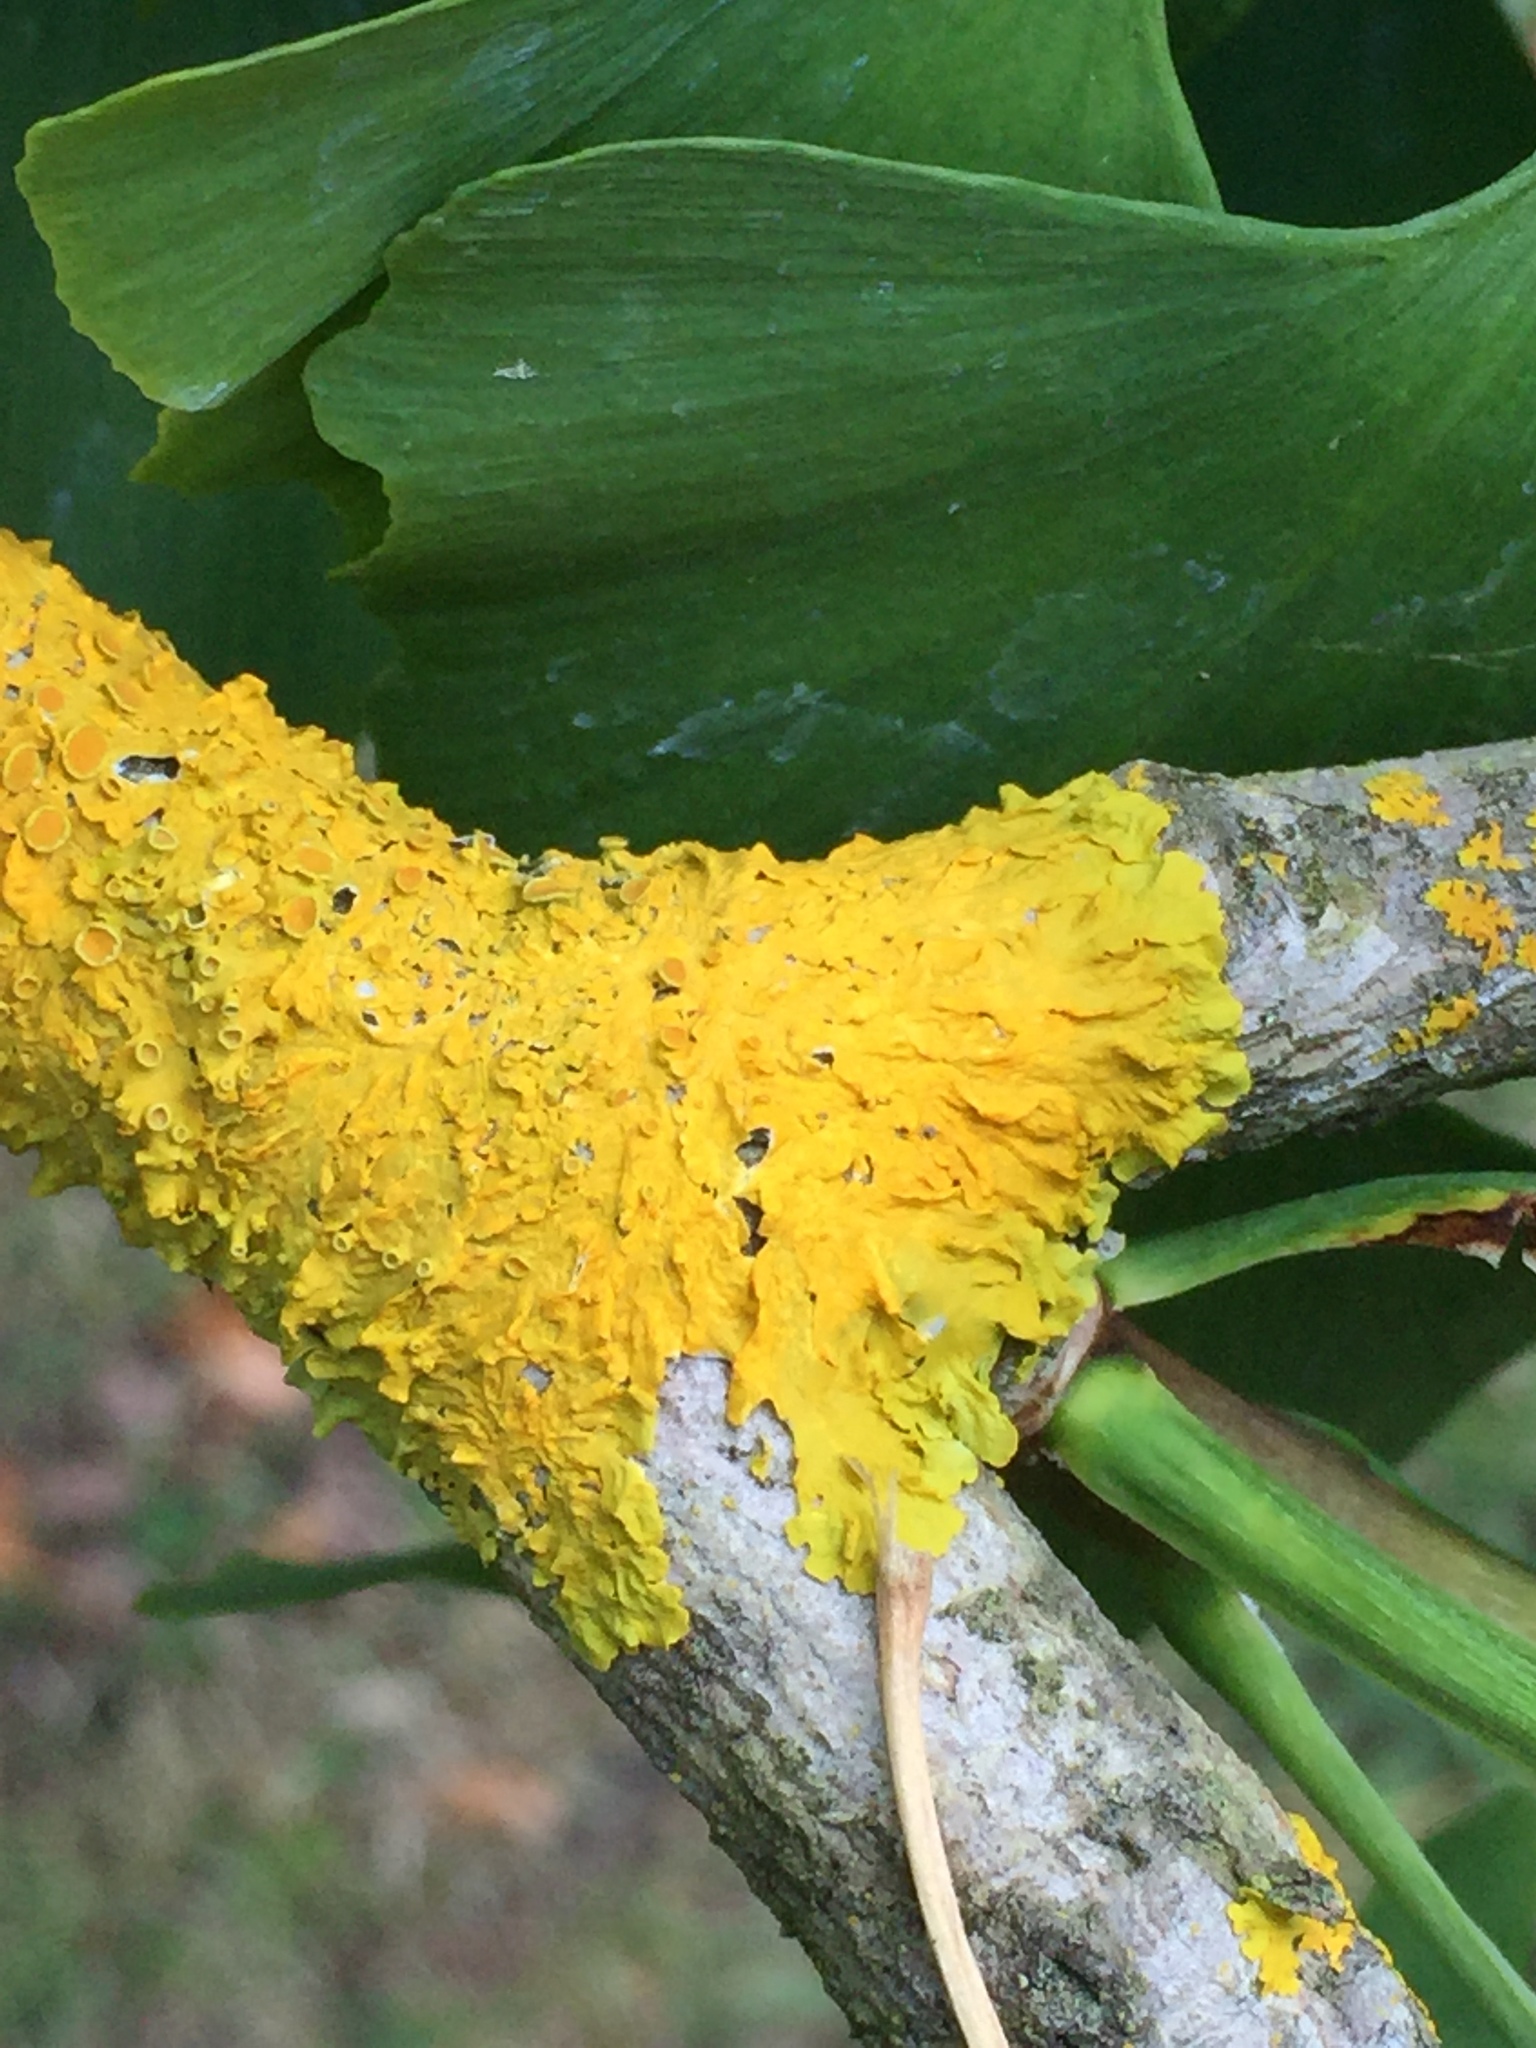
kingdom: Fungi
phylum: Ascomycota
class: Lecanoromycetes
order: Teloschistales
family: Teloschistaceae
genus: Xanthoria
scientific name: Xanthoria parietina
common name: Common orange lichen
